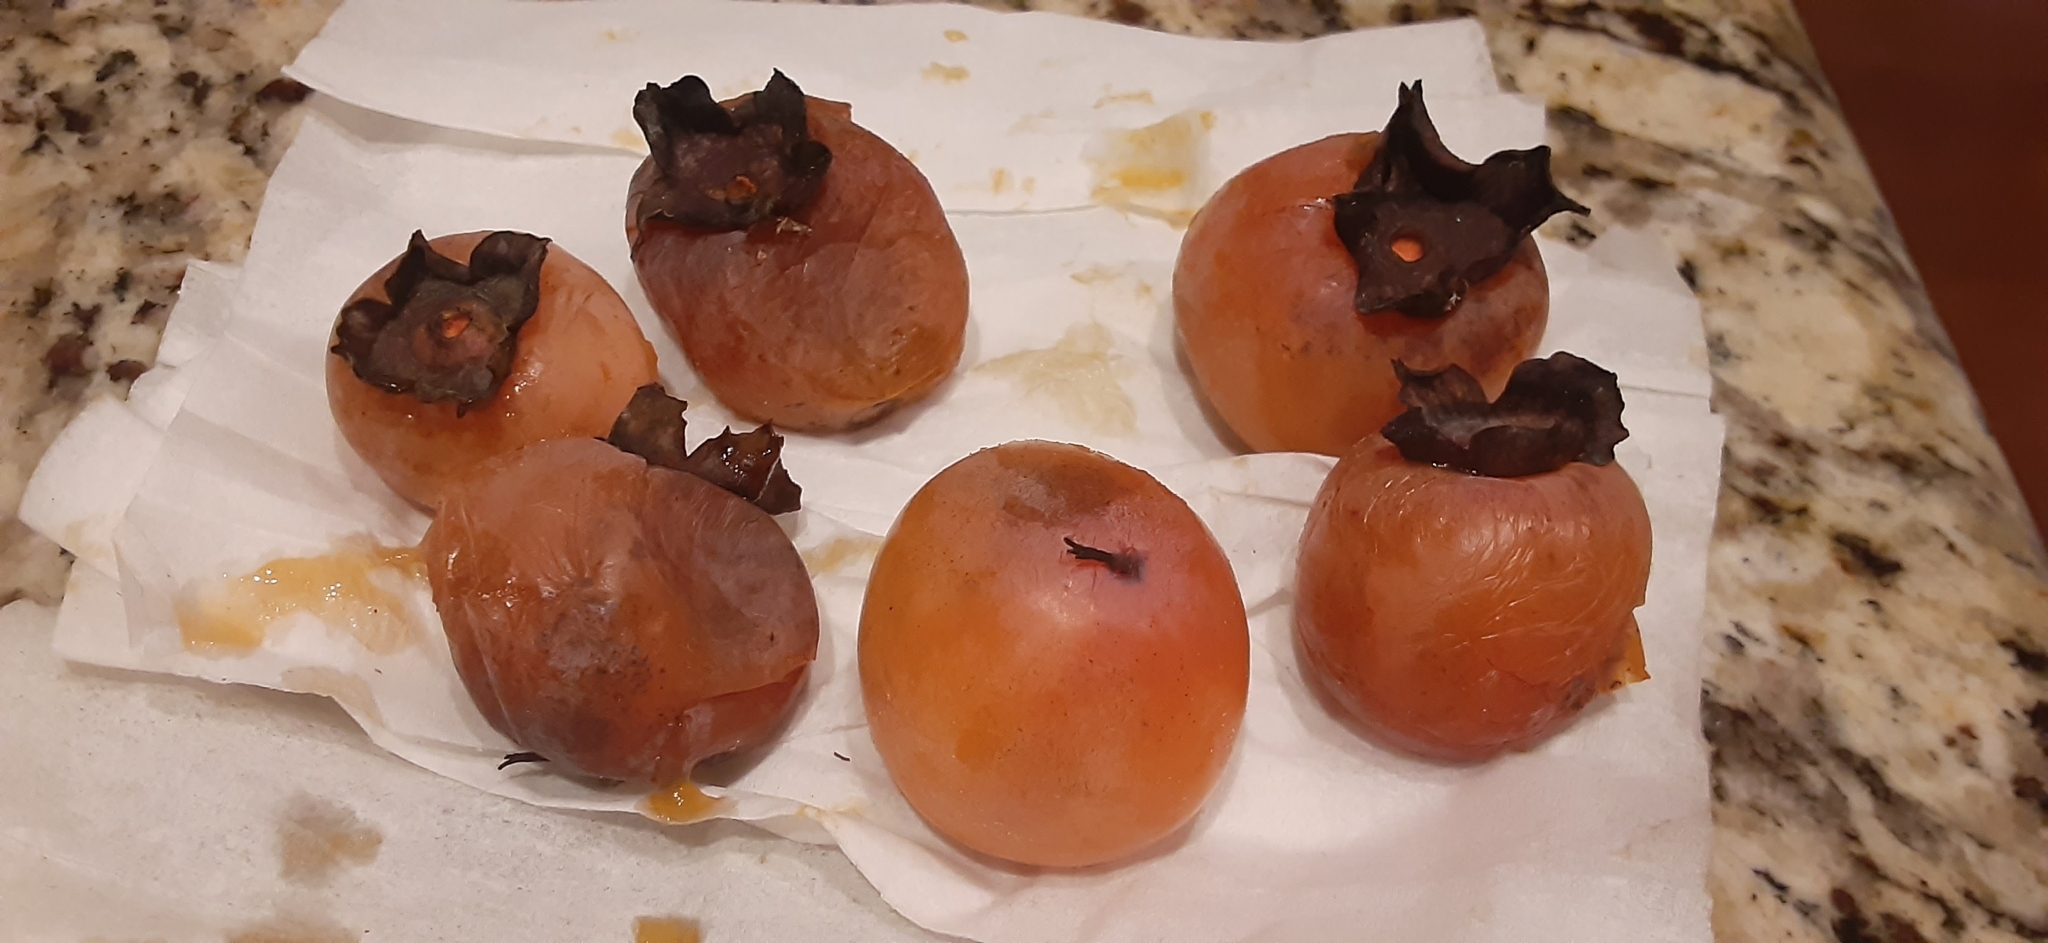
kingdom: Plantae
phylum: Tracheophyta
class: Magnoliopsida
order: Ericales
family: Ebenaceae
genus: Diospyros
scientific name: Diospyros virginiana
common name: Persimmon
